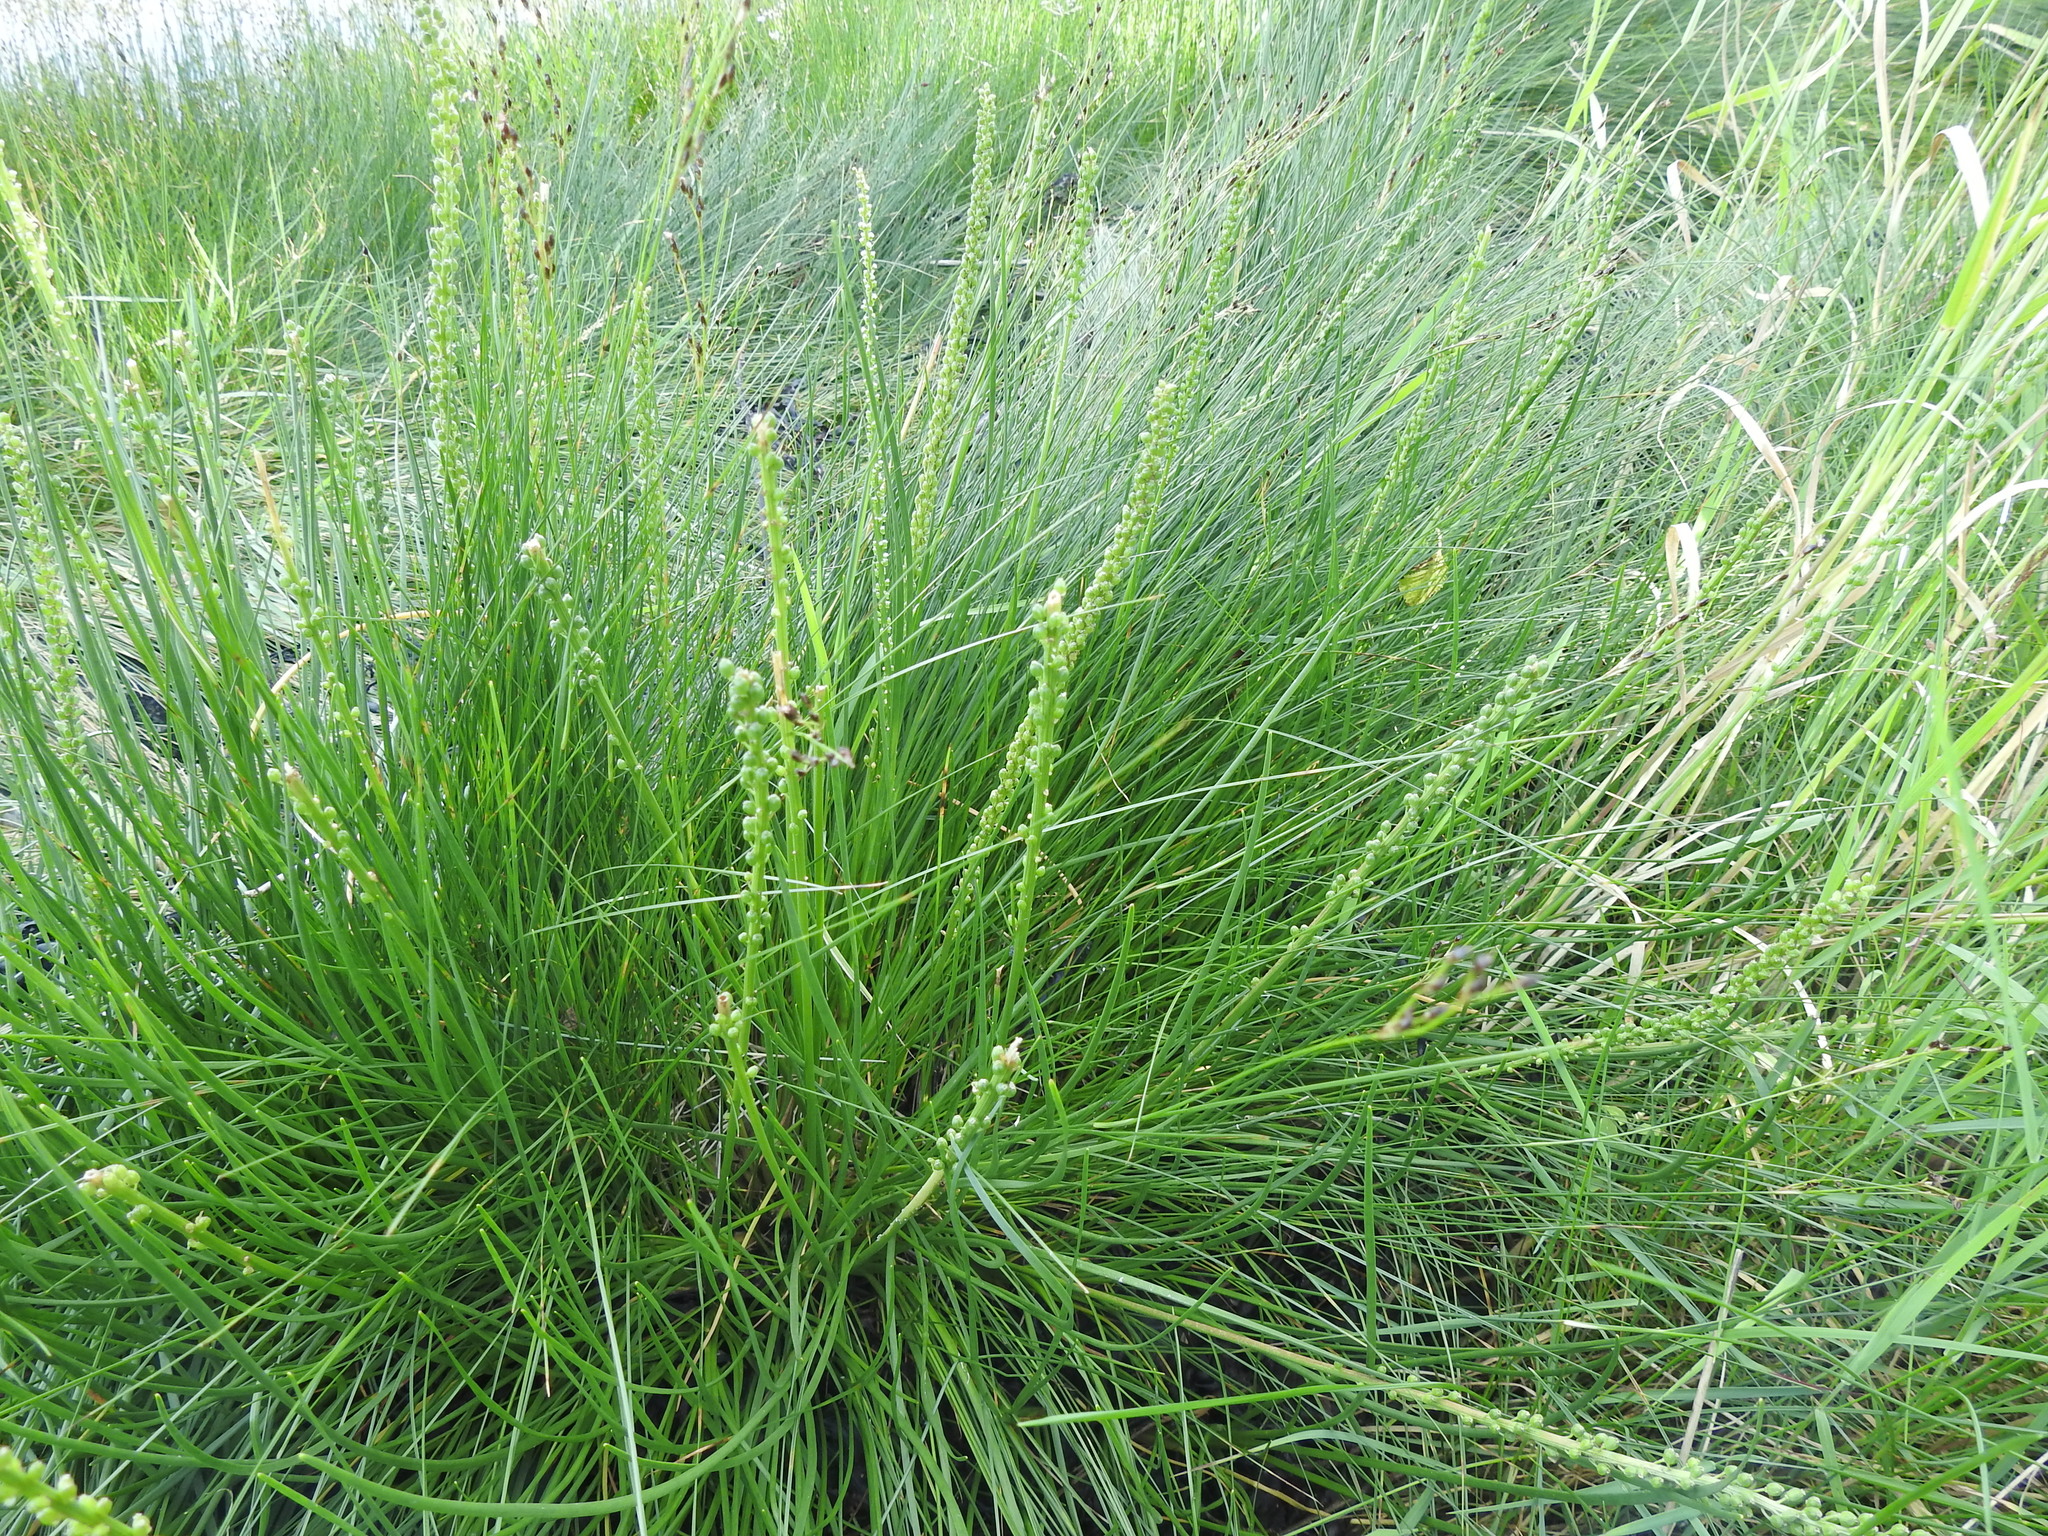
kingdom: Plantae
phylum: Tracheophyta
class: Liliopsida
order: Alismatales
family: Juncaginaceae
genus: Triglochin
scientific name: Triglochin maritima
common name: Sea arrowgrass
